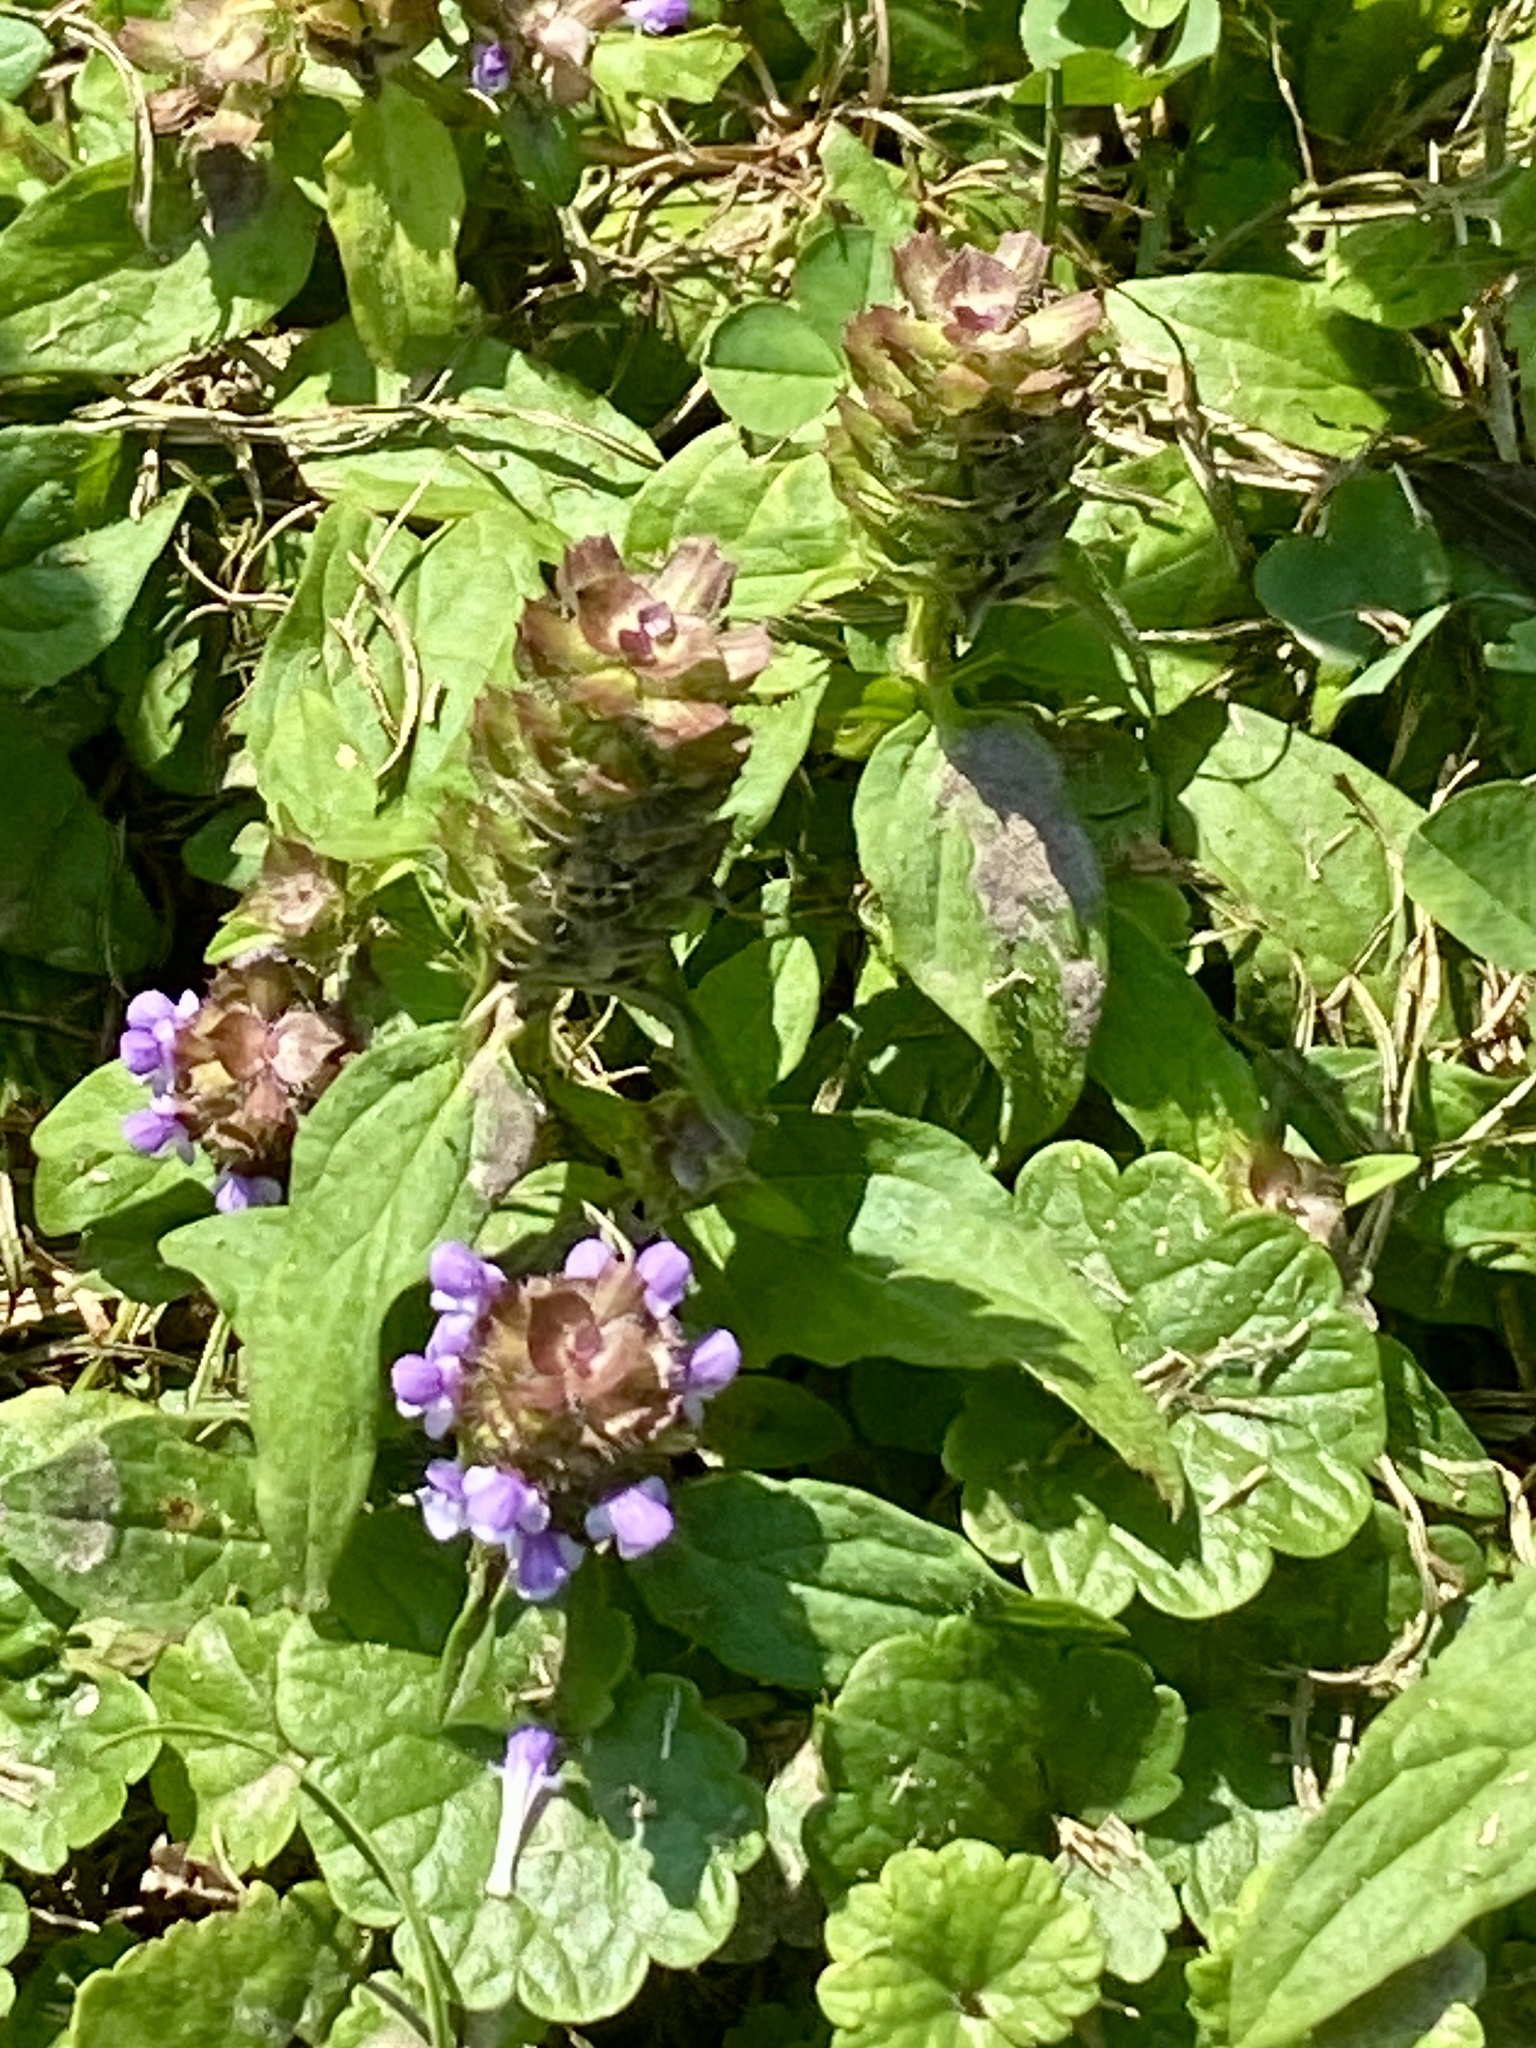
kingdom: Plantae
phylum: Tracheophyta
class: Magnoliopsida
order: Lamiales
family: Lamiaceae
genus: Prunella
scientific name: Prunella vulgaris
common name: Heal-all
